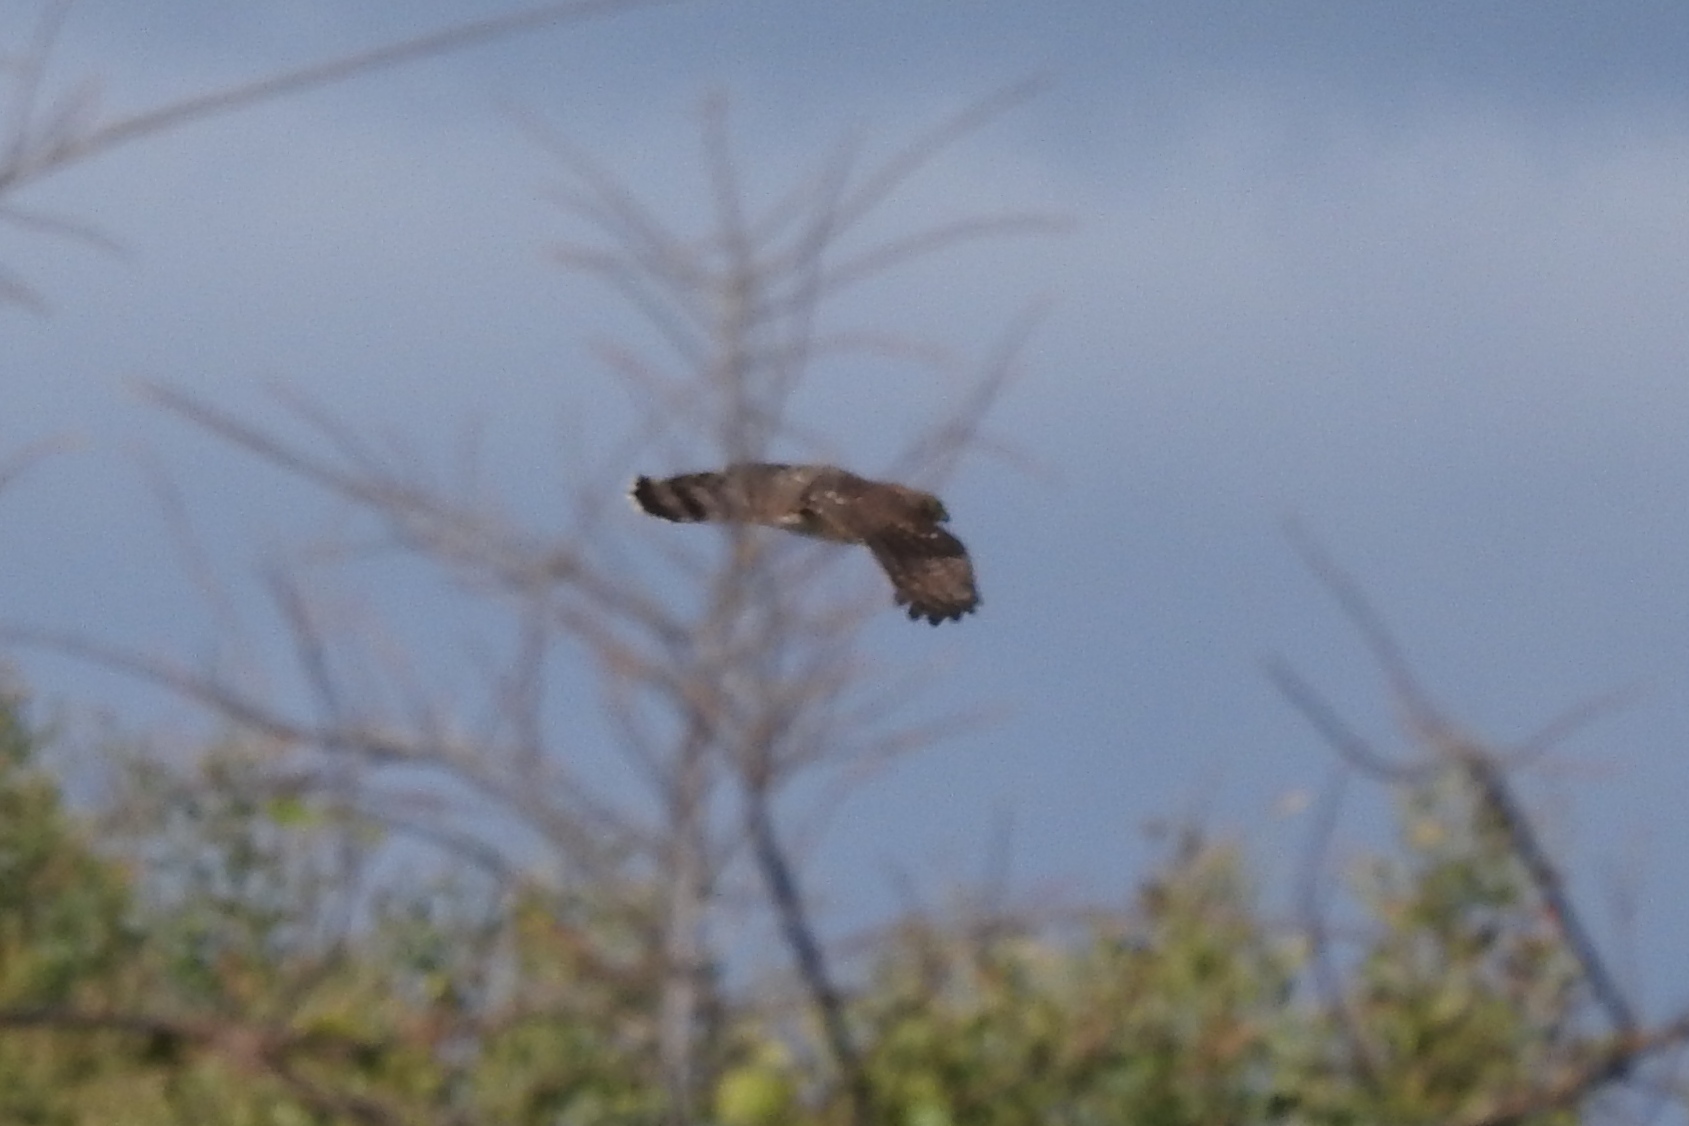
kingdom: Animalia
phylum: Chordata
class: Aves
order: Accipitriformes
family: Accipitridae
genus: Accipiter
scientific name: Accipiter cooperii
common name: Cooper's hawk
